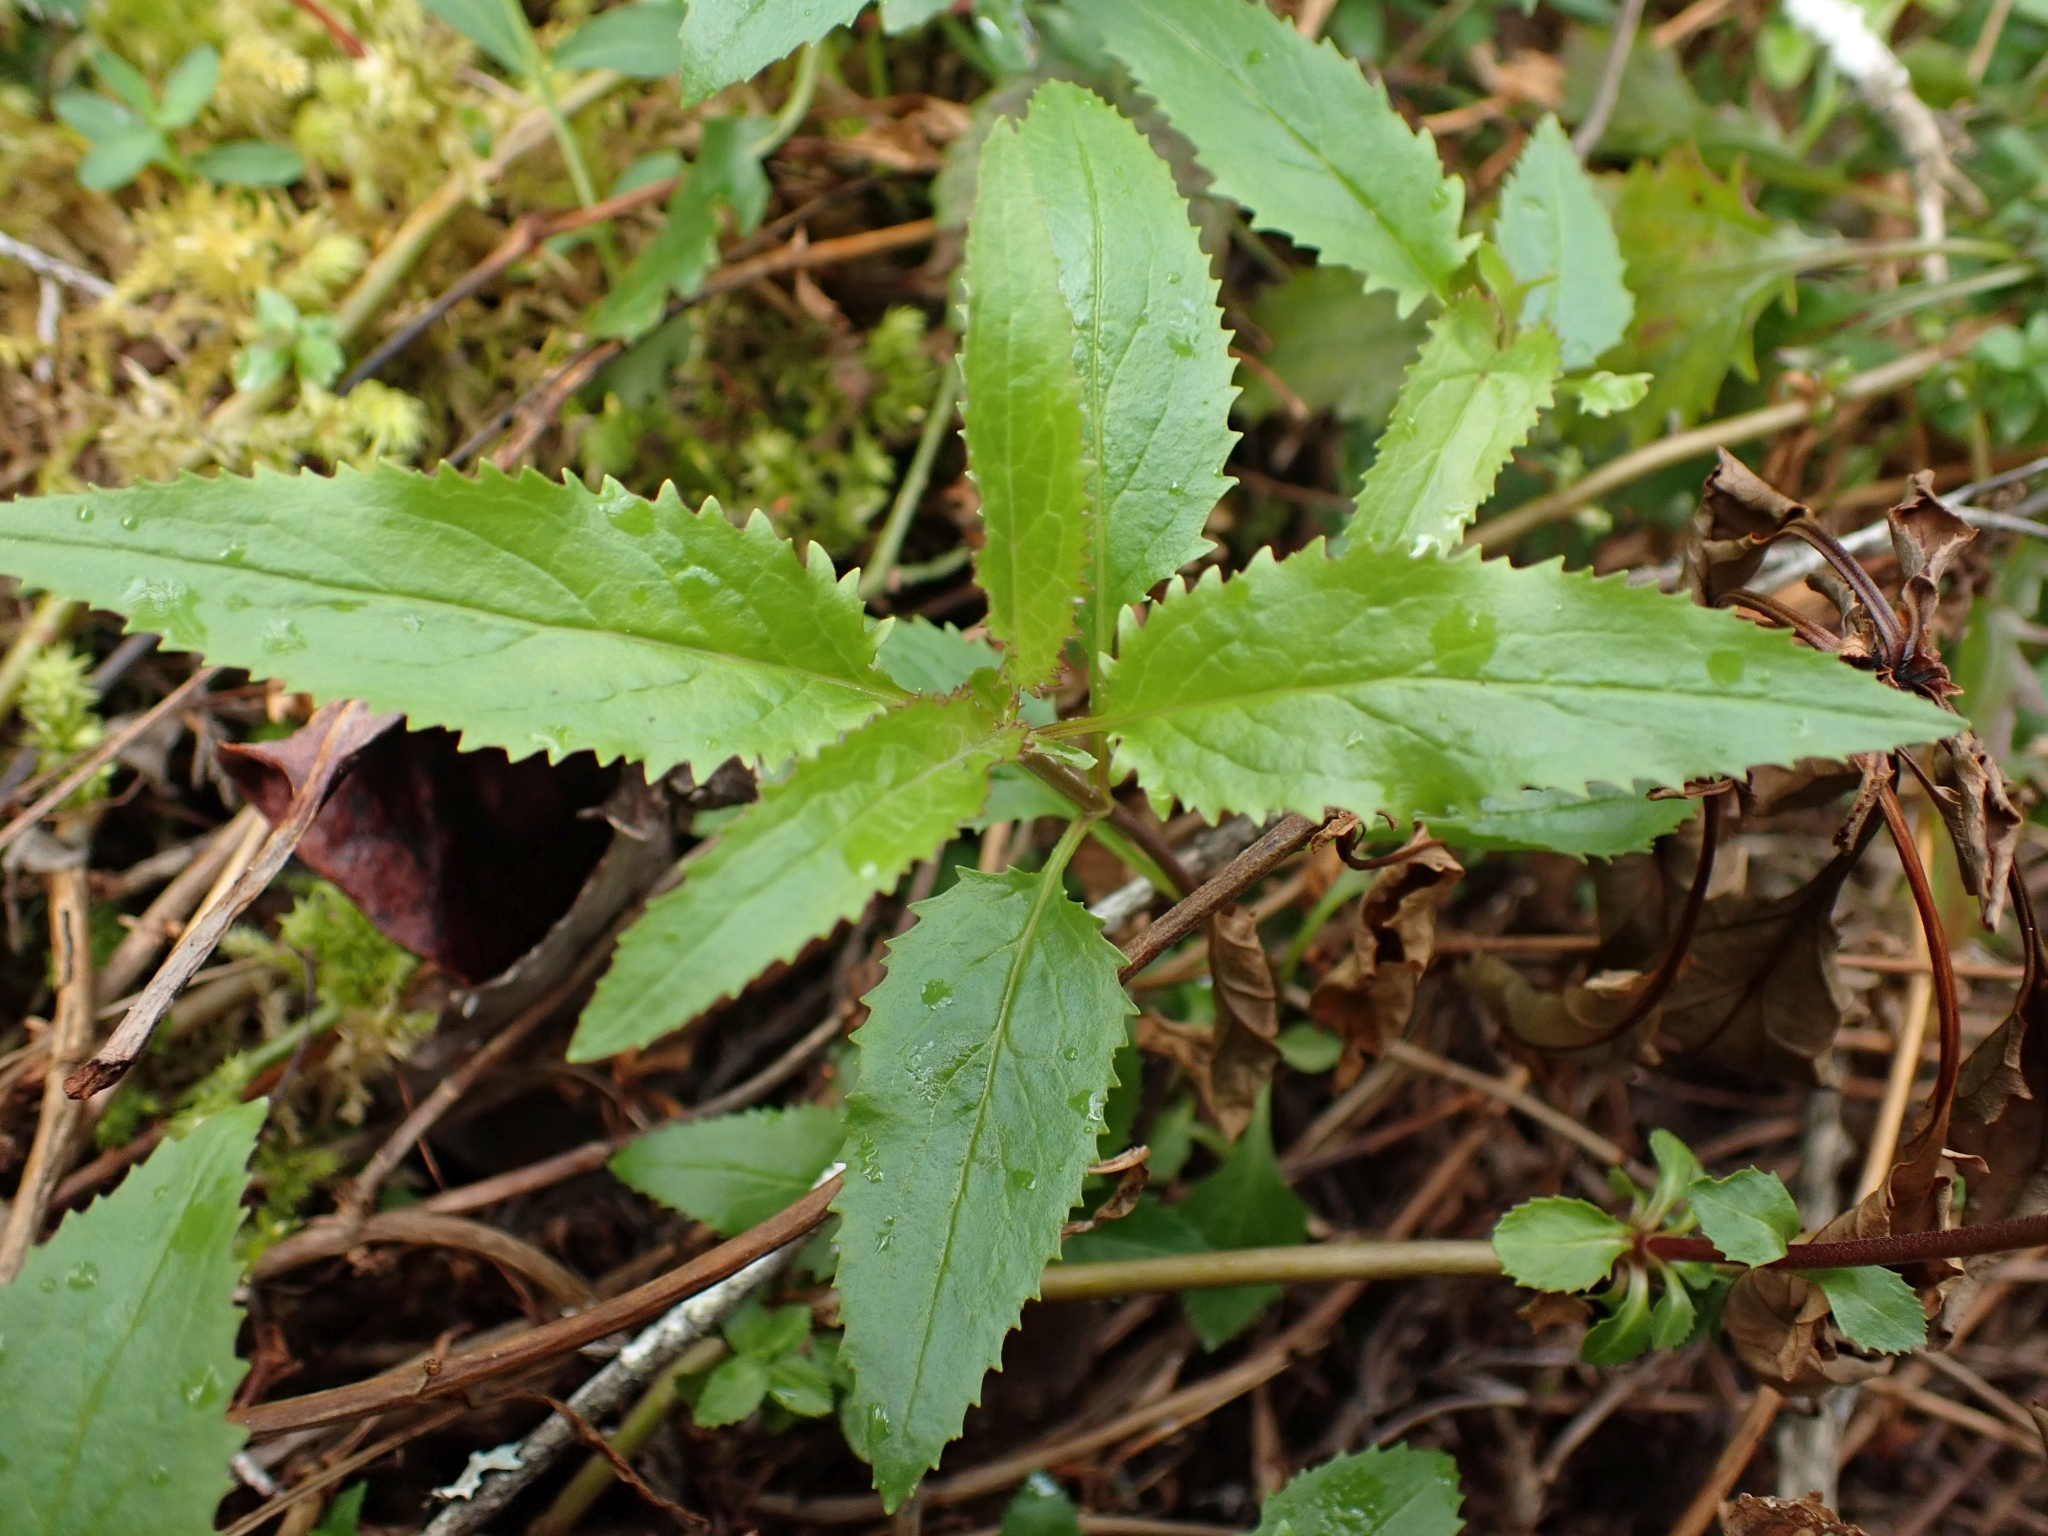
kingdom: Plantae
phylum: Tracheophyta
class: Magnoliopsida
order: Lamiales
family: Plantaginaceae
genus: Penstemon
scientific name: Penstemon serrulatus
